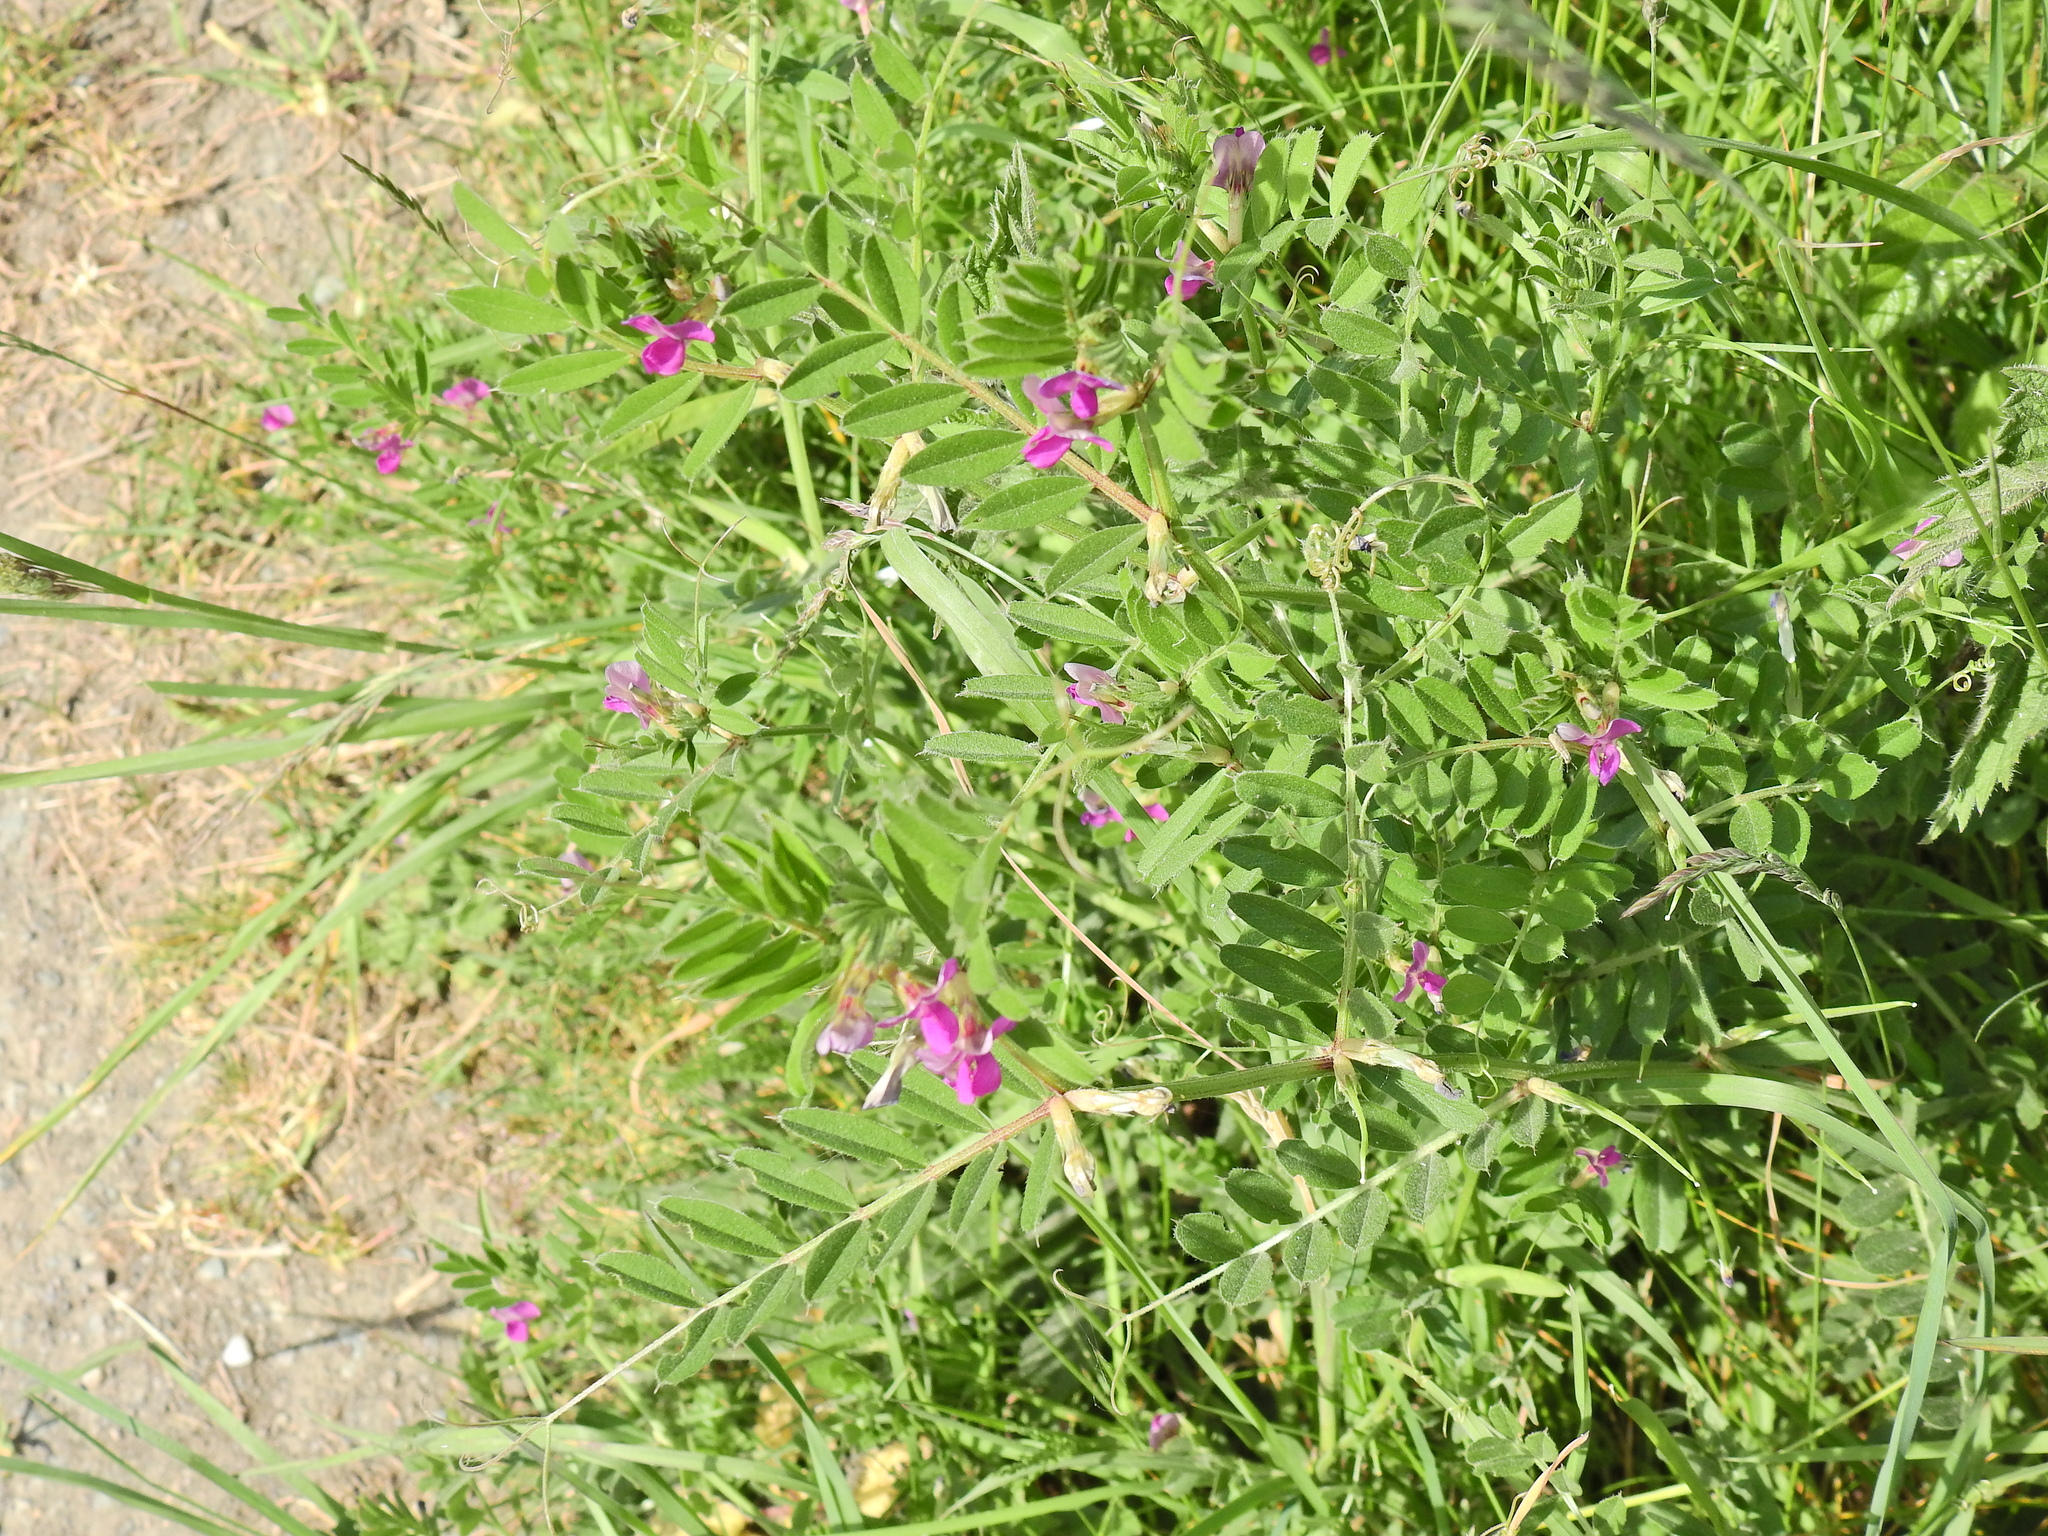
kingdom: Plantae
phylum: Tracheophyta
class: Magnoliopsida
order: Fabales
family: Fabaceae
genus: Vicia
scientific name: Vicia sativa
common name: Garden vetch
